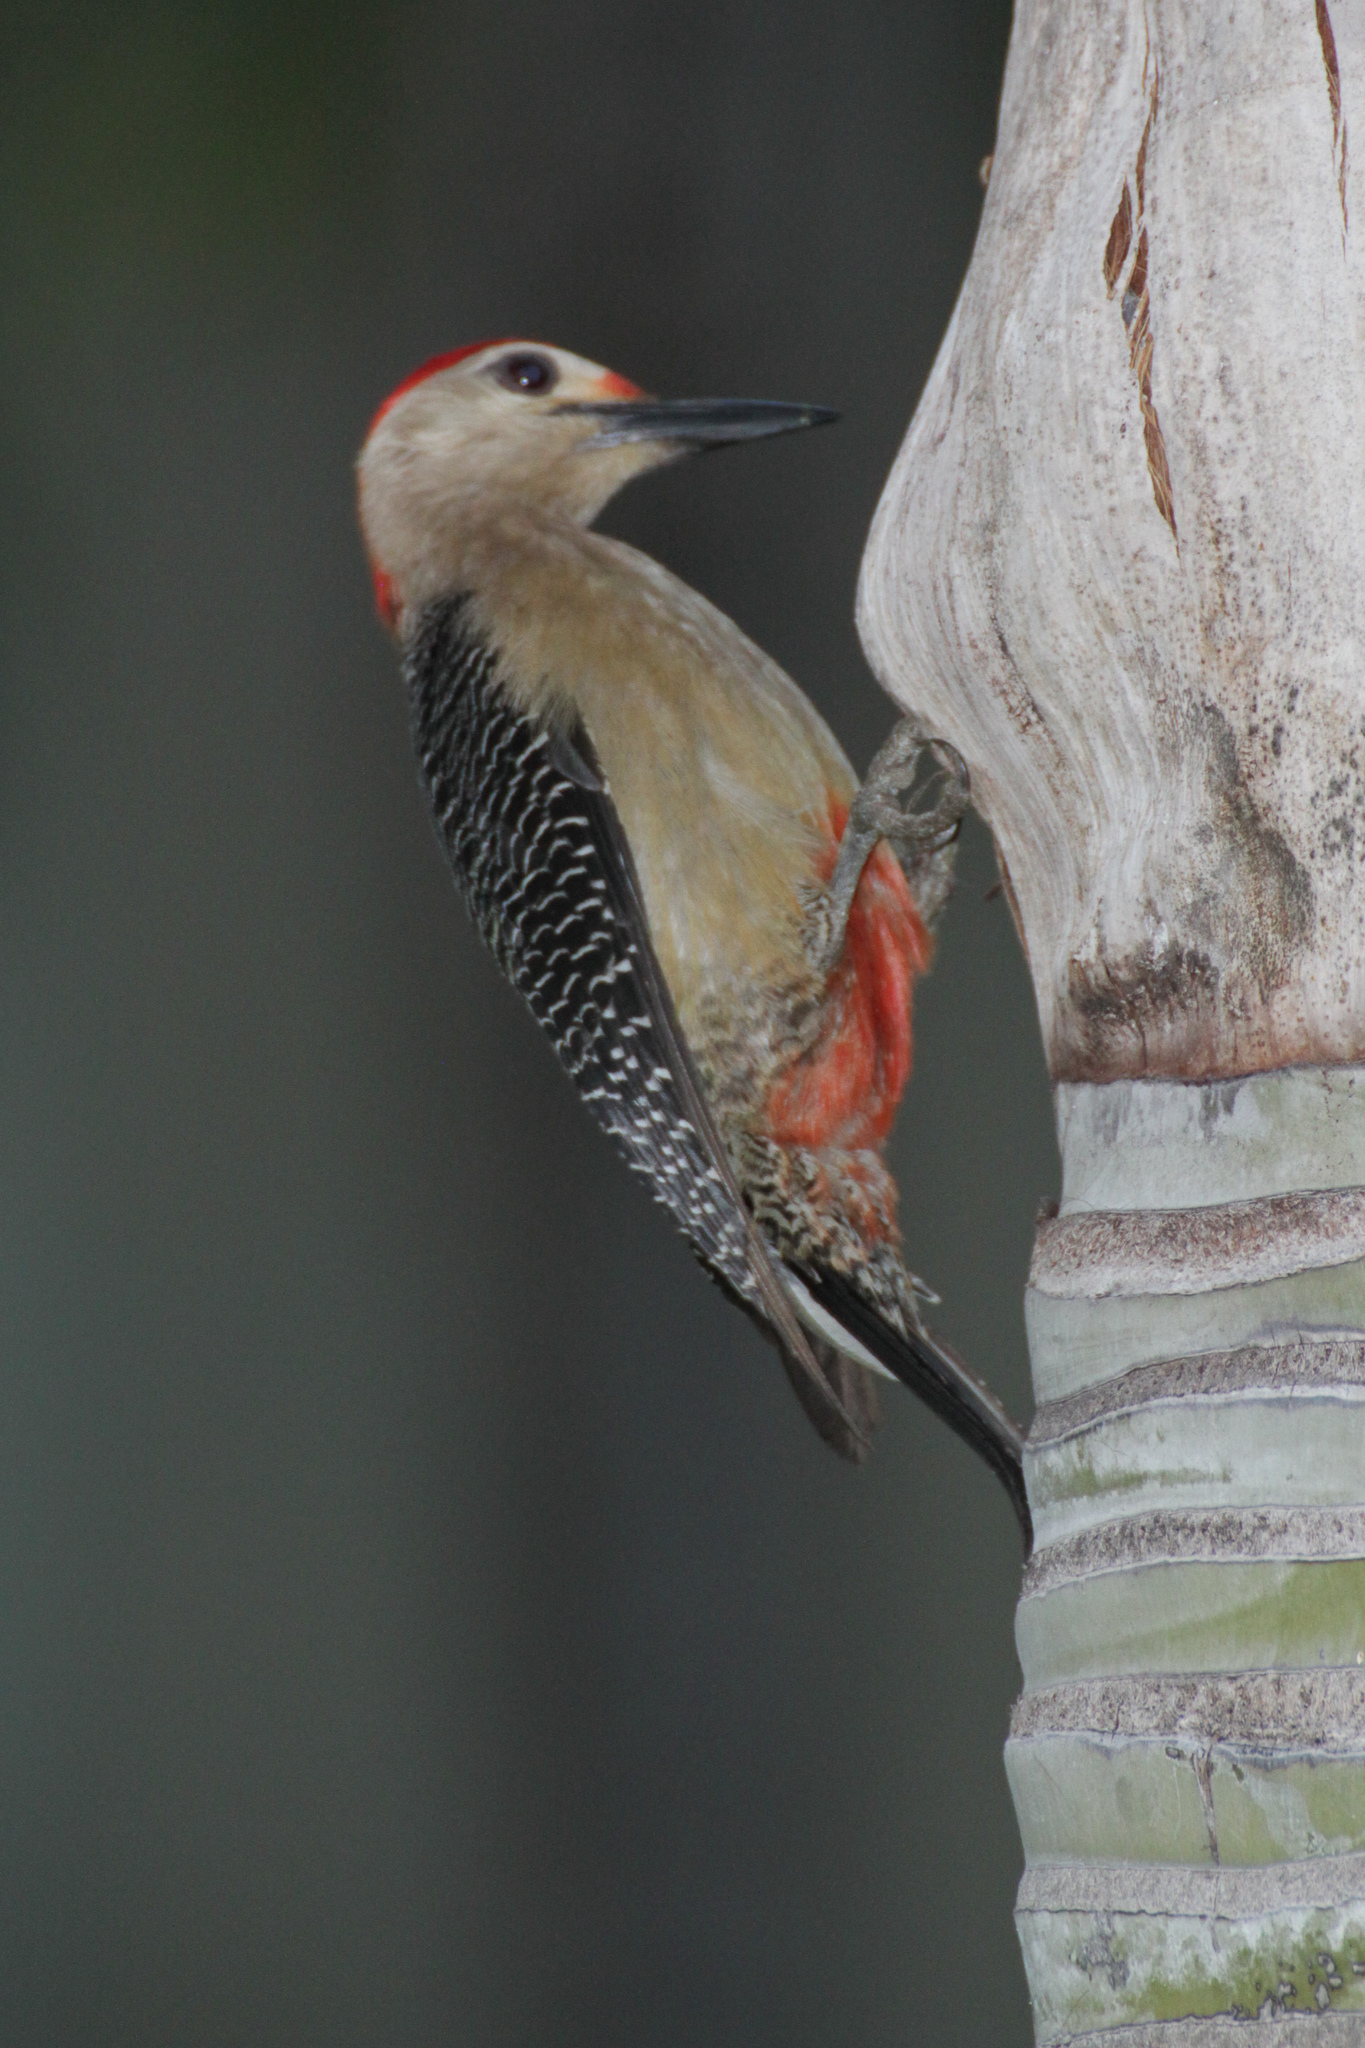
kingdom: Animalia
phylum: Chordata
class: Aves
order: Piciformes
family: Picidae
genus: Melanerpes
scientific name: Melanerpes santacruzi
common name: Velasquez's woodpecker
